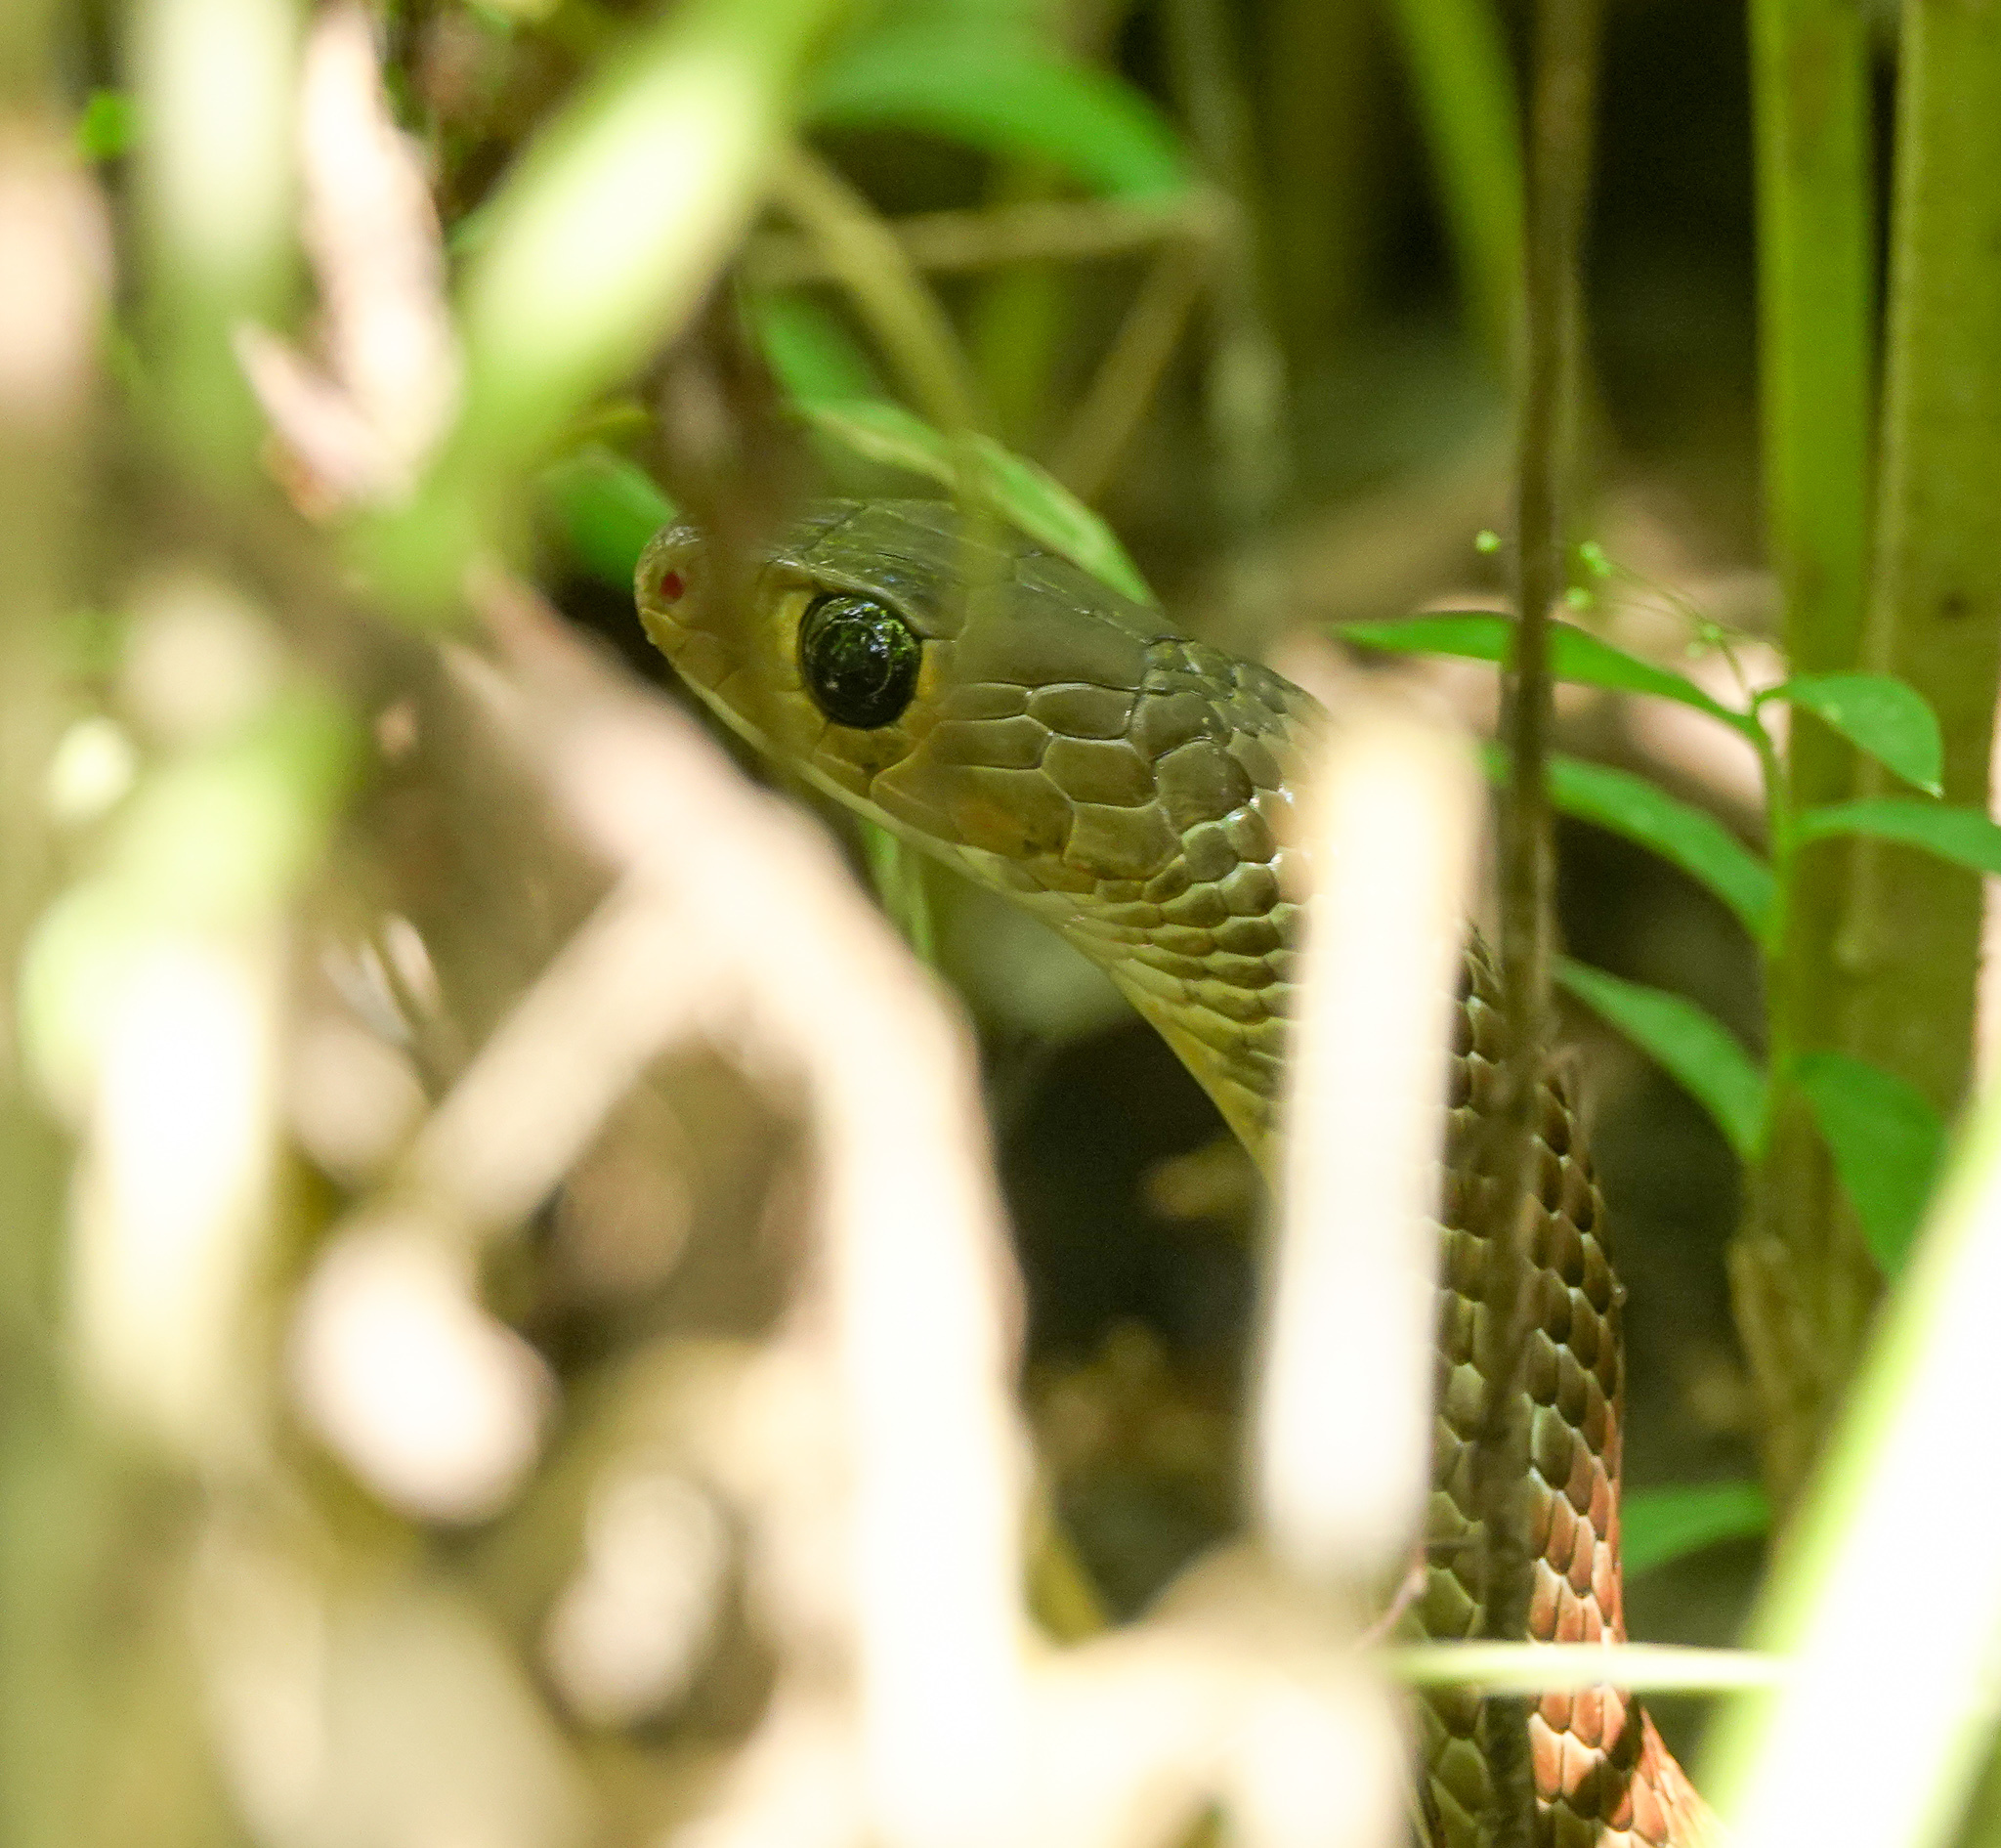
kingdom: Animalia
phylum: Chordata
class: Squamata
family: Colubridae
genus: Ptyas
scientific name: Ptyas korros
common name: Indo-chinese rat snake
